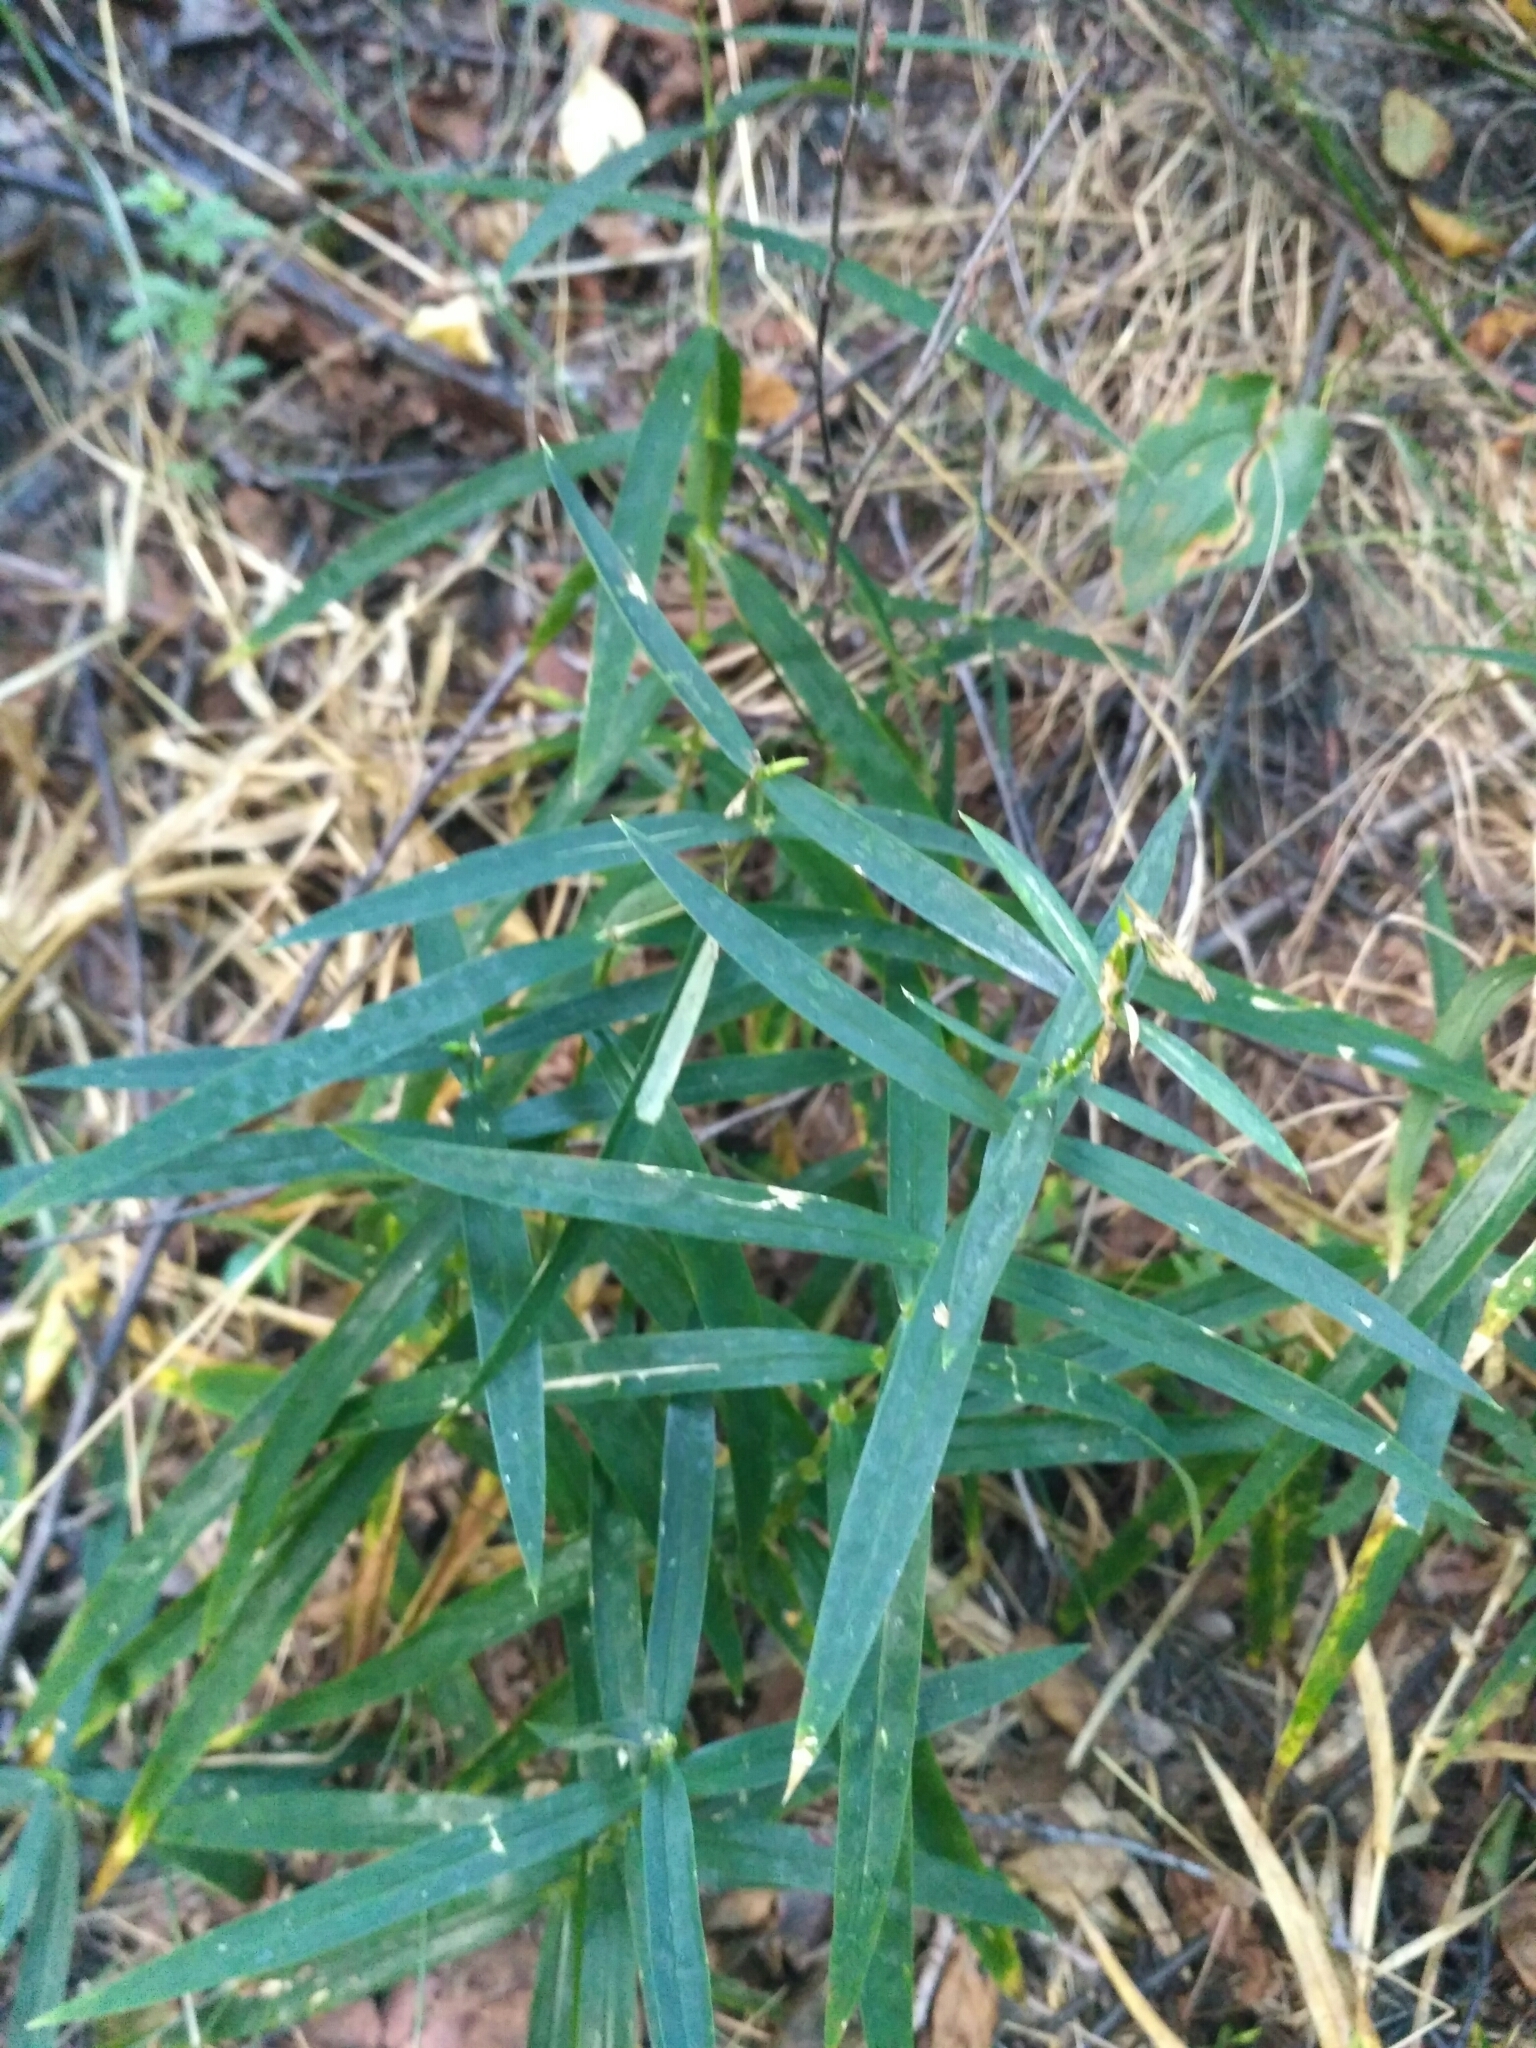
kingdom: Plantae
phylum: Tracheophyta
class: Magnoliopsida
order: Caryophyllales
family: Caryophyllaceae
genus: Rabelera
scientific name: Rabelera holostea
